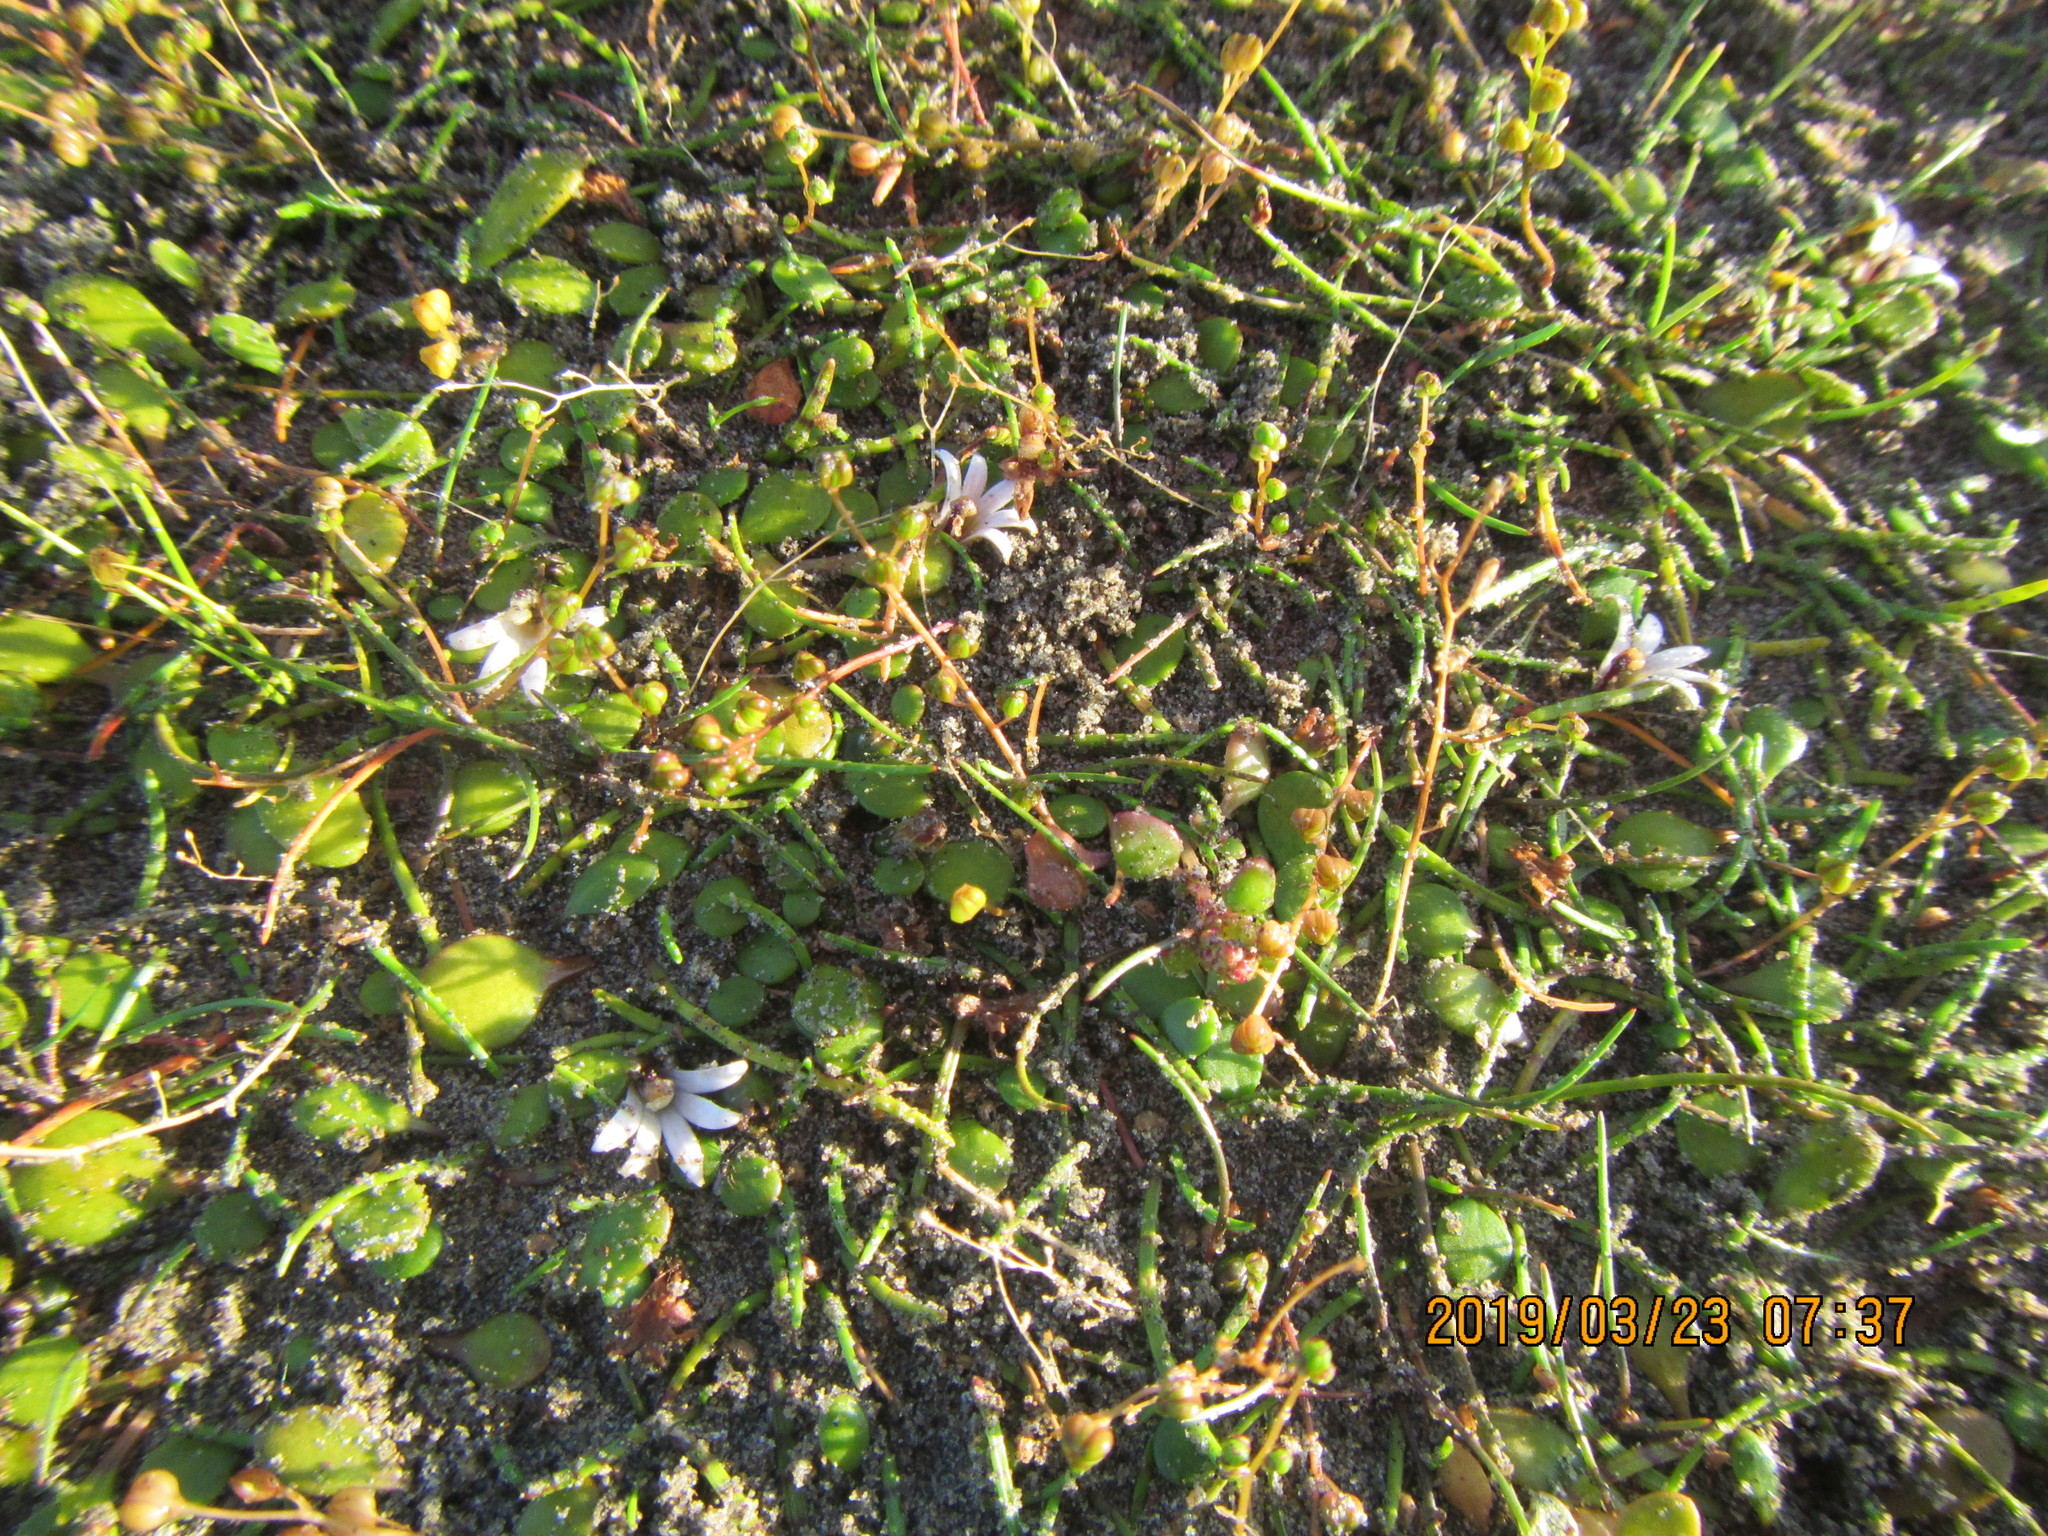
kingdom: Plantae
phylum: Tracheophyta
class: Magnoliopsida
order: Asterales
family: Goodeniaceae
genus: Goodenia
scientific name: Goodenia heenanii
